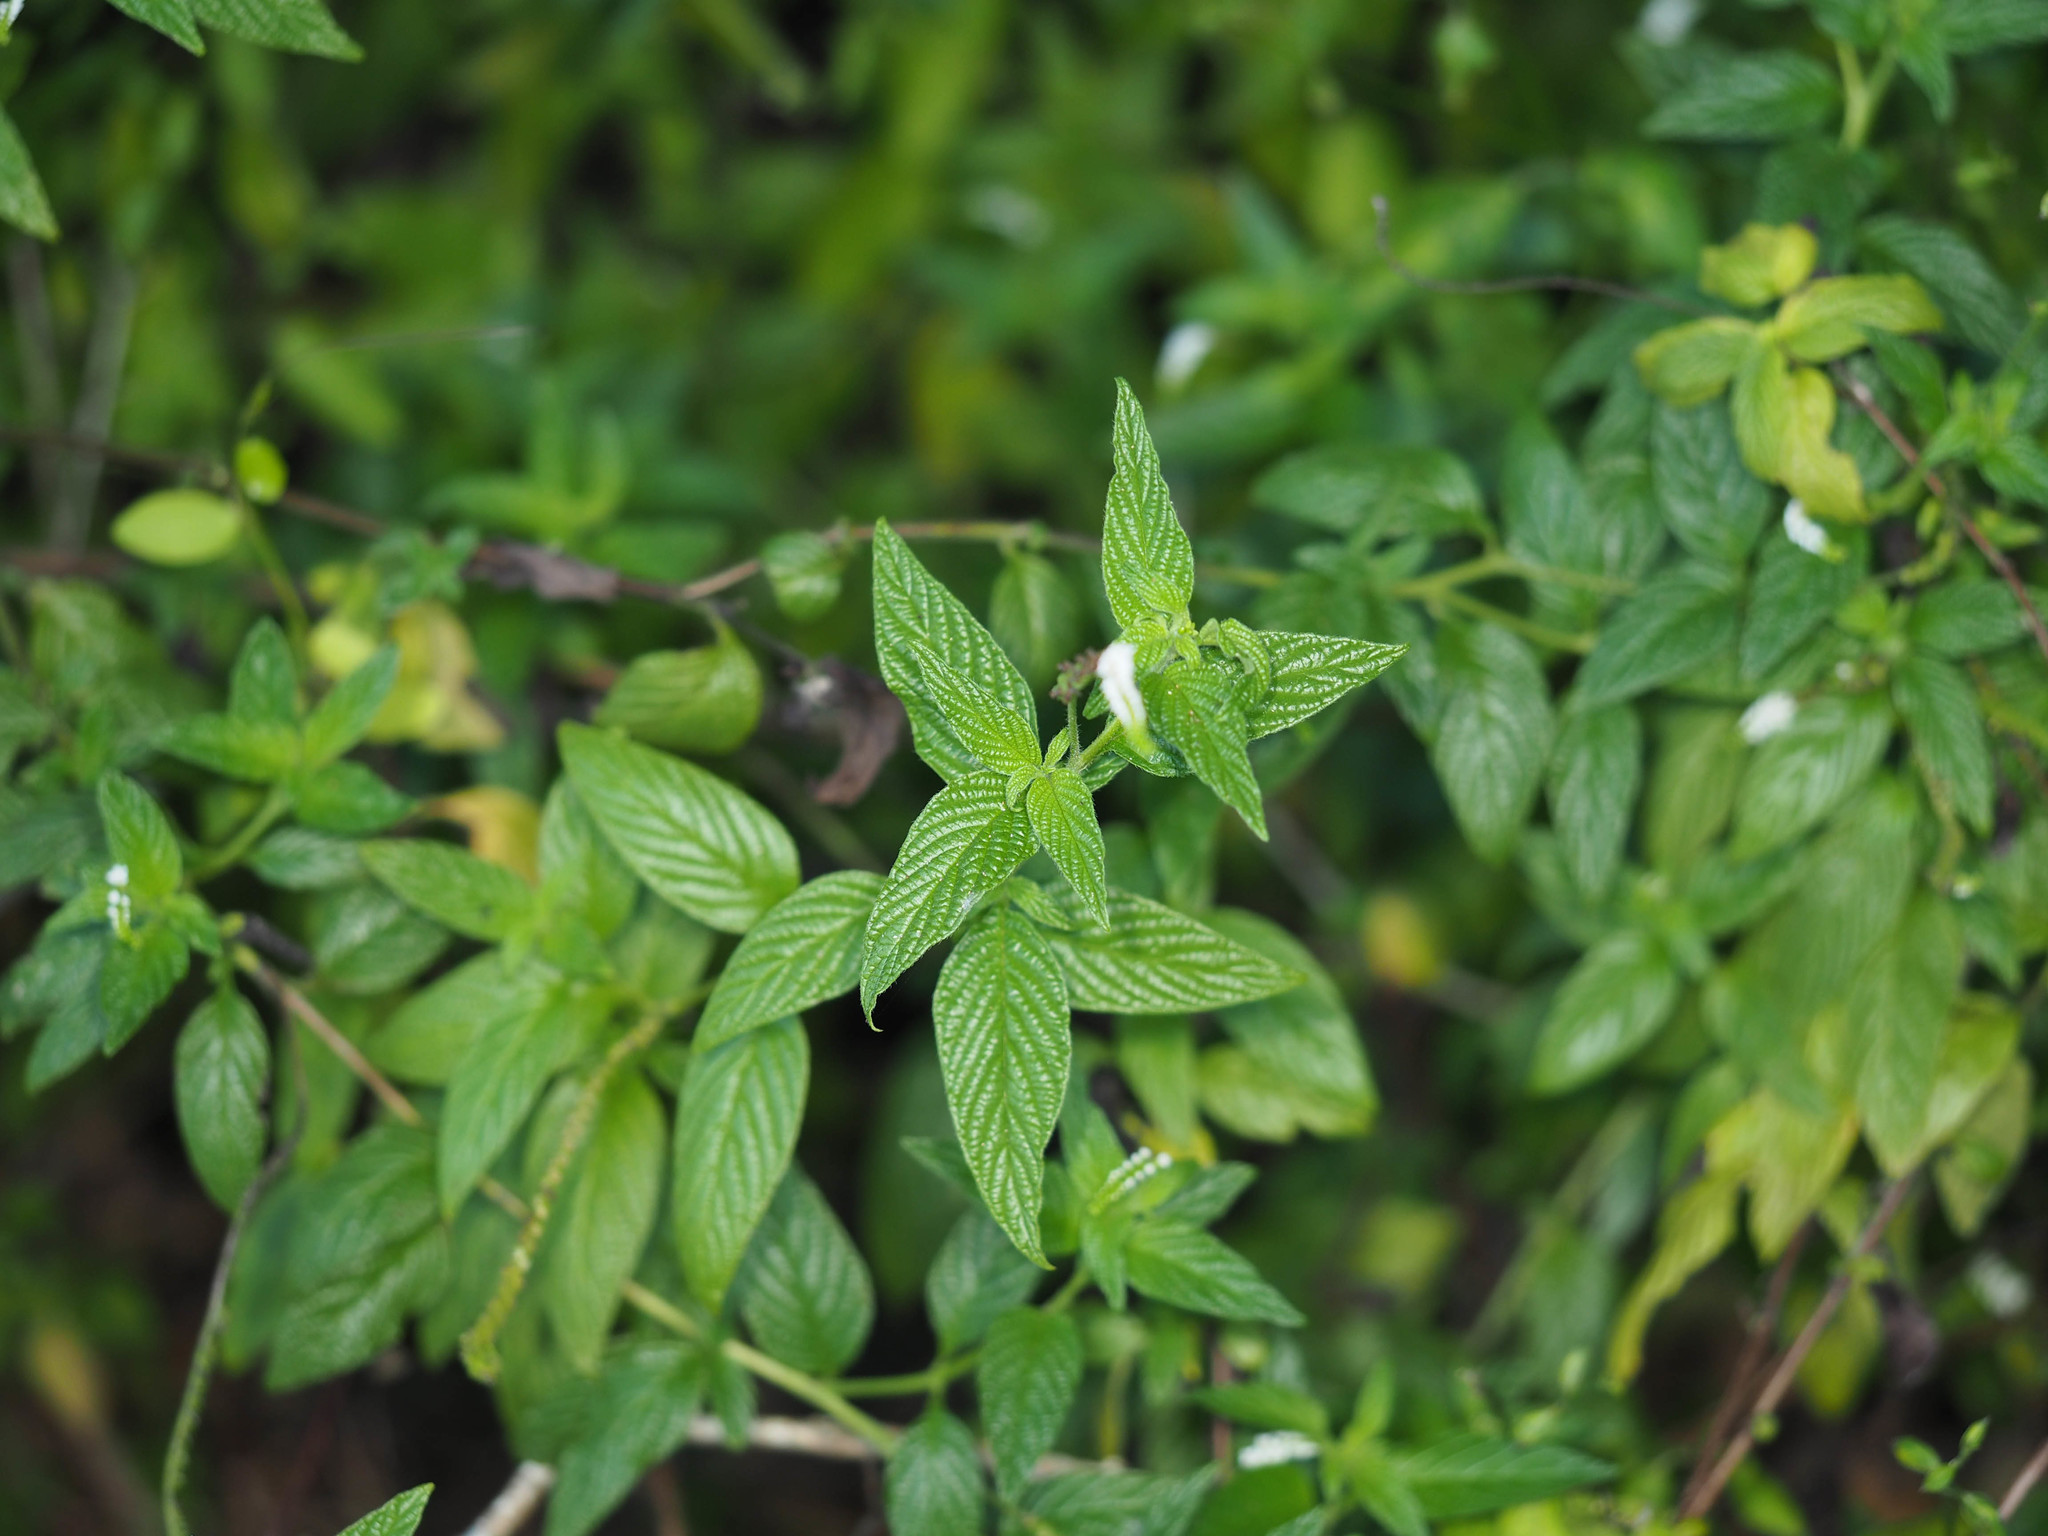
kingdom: Plantae
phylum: Tracheophyta
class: Magnoliopsida
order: Boraginales
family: Heliotropiaceae
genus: Heliotropium
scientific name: Heliotropium angiospermum
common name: Eye bright
